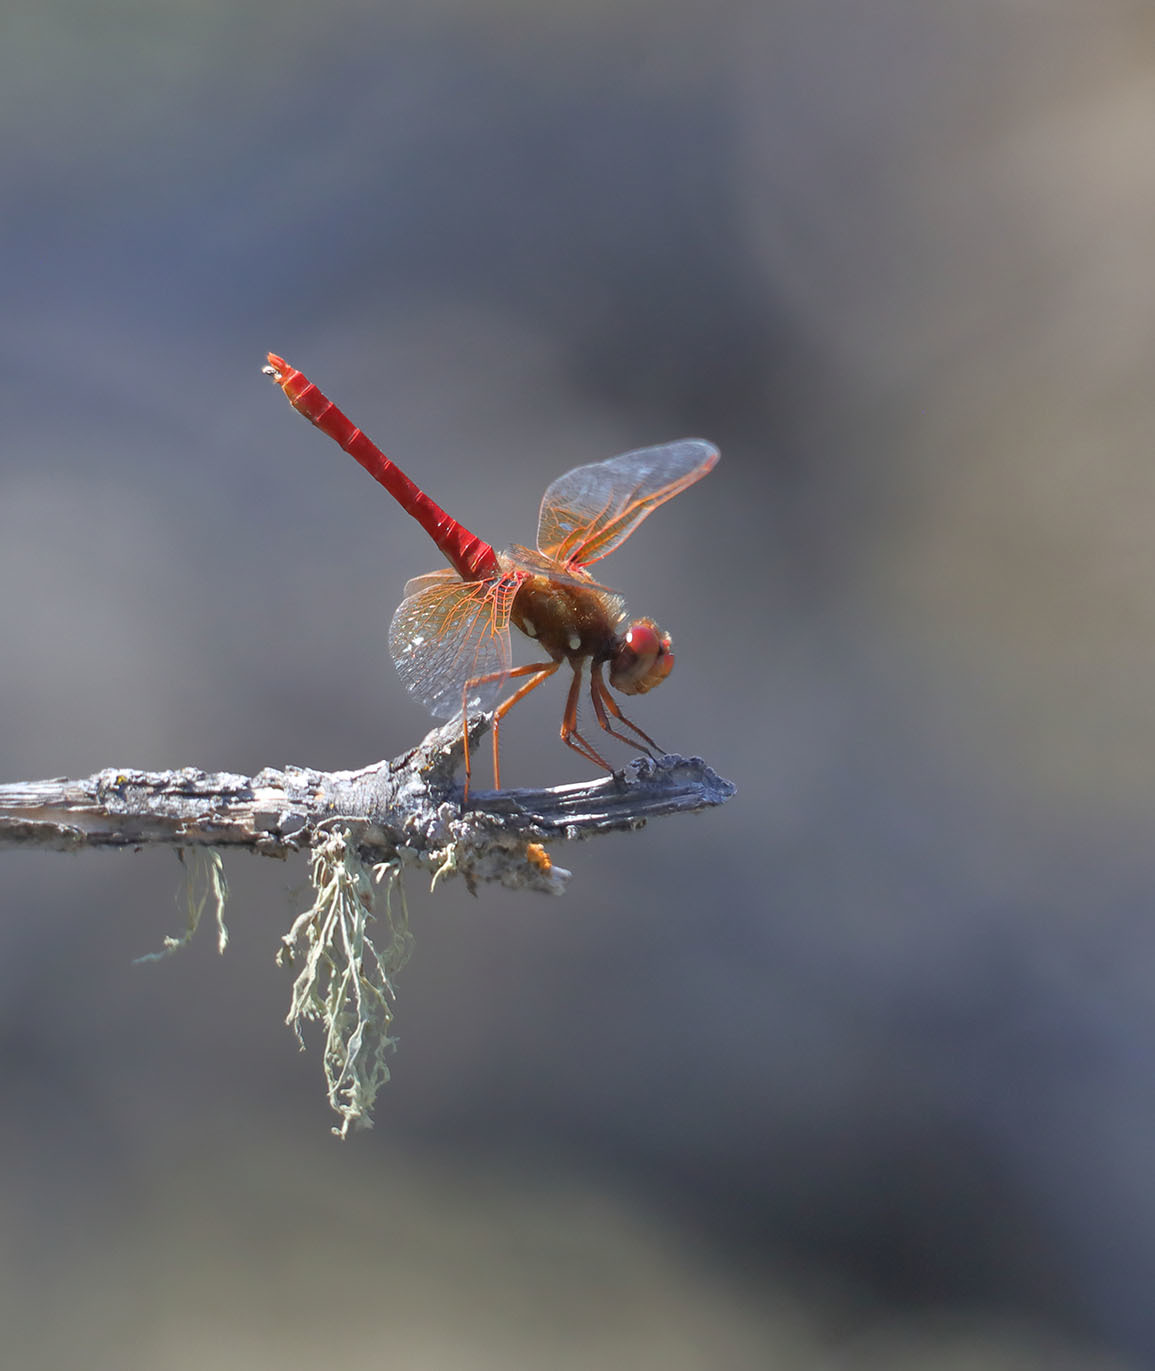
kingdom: Animalia
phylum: Arthropoda
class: Insecta
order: Odonata
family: Libellulidae
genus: Sympetrum
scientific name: Sympetrum illotum
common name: Cardinal meadowhawk
